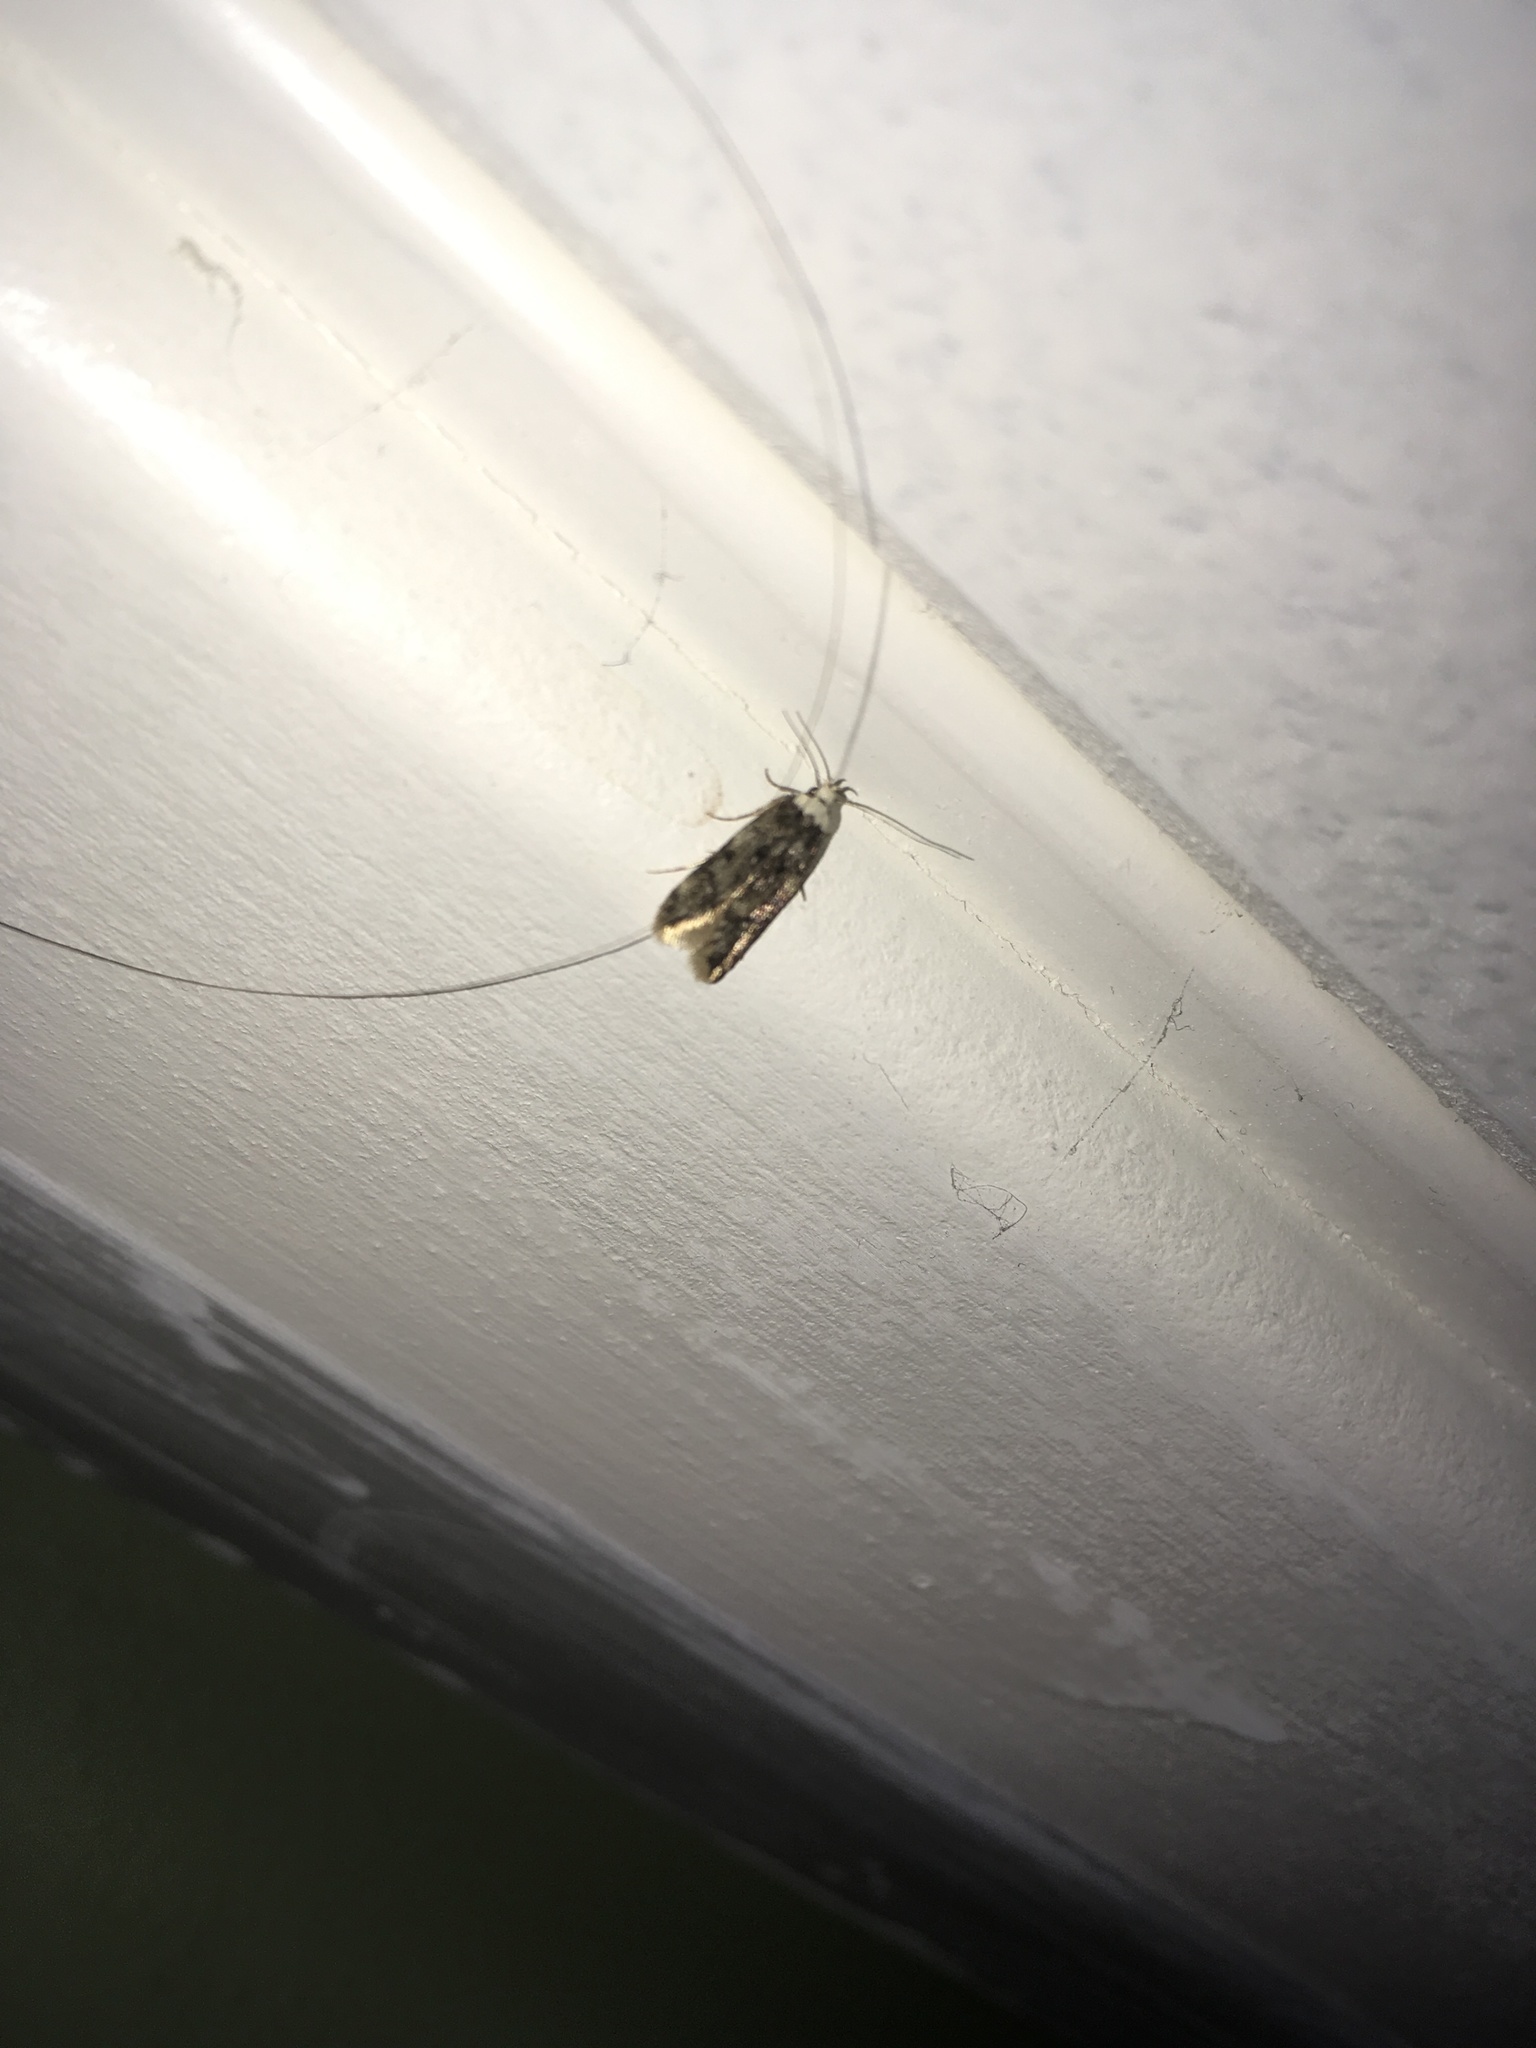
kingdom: Animalia
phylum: Arthropoda
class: Insecta
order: Lepidoptera
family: Oecophoridae
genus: Endrosis
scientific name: Endrosis sarcitrella
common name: White-shouldered house moth
